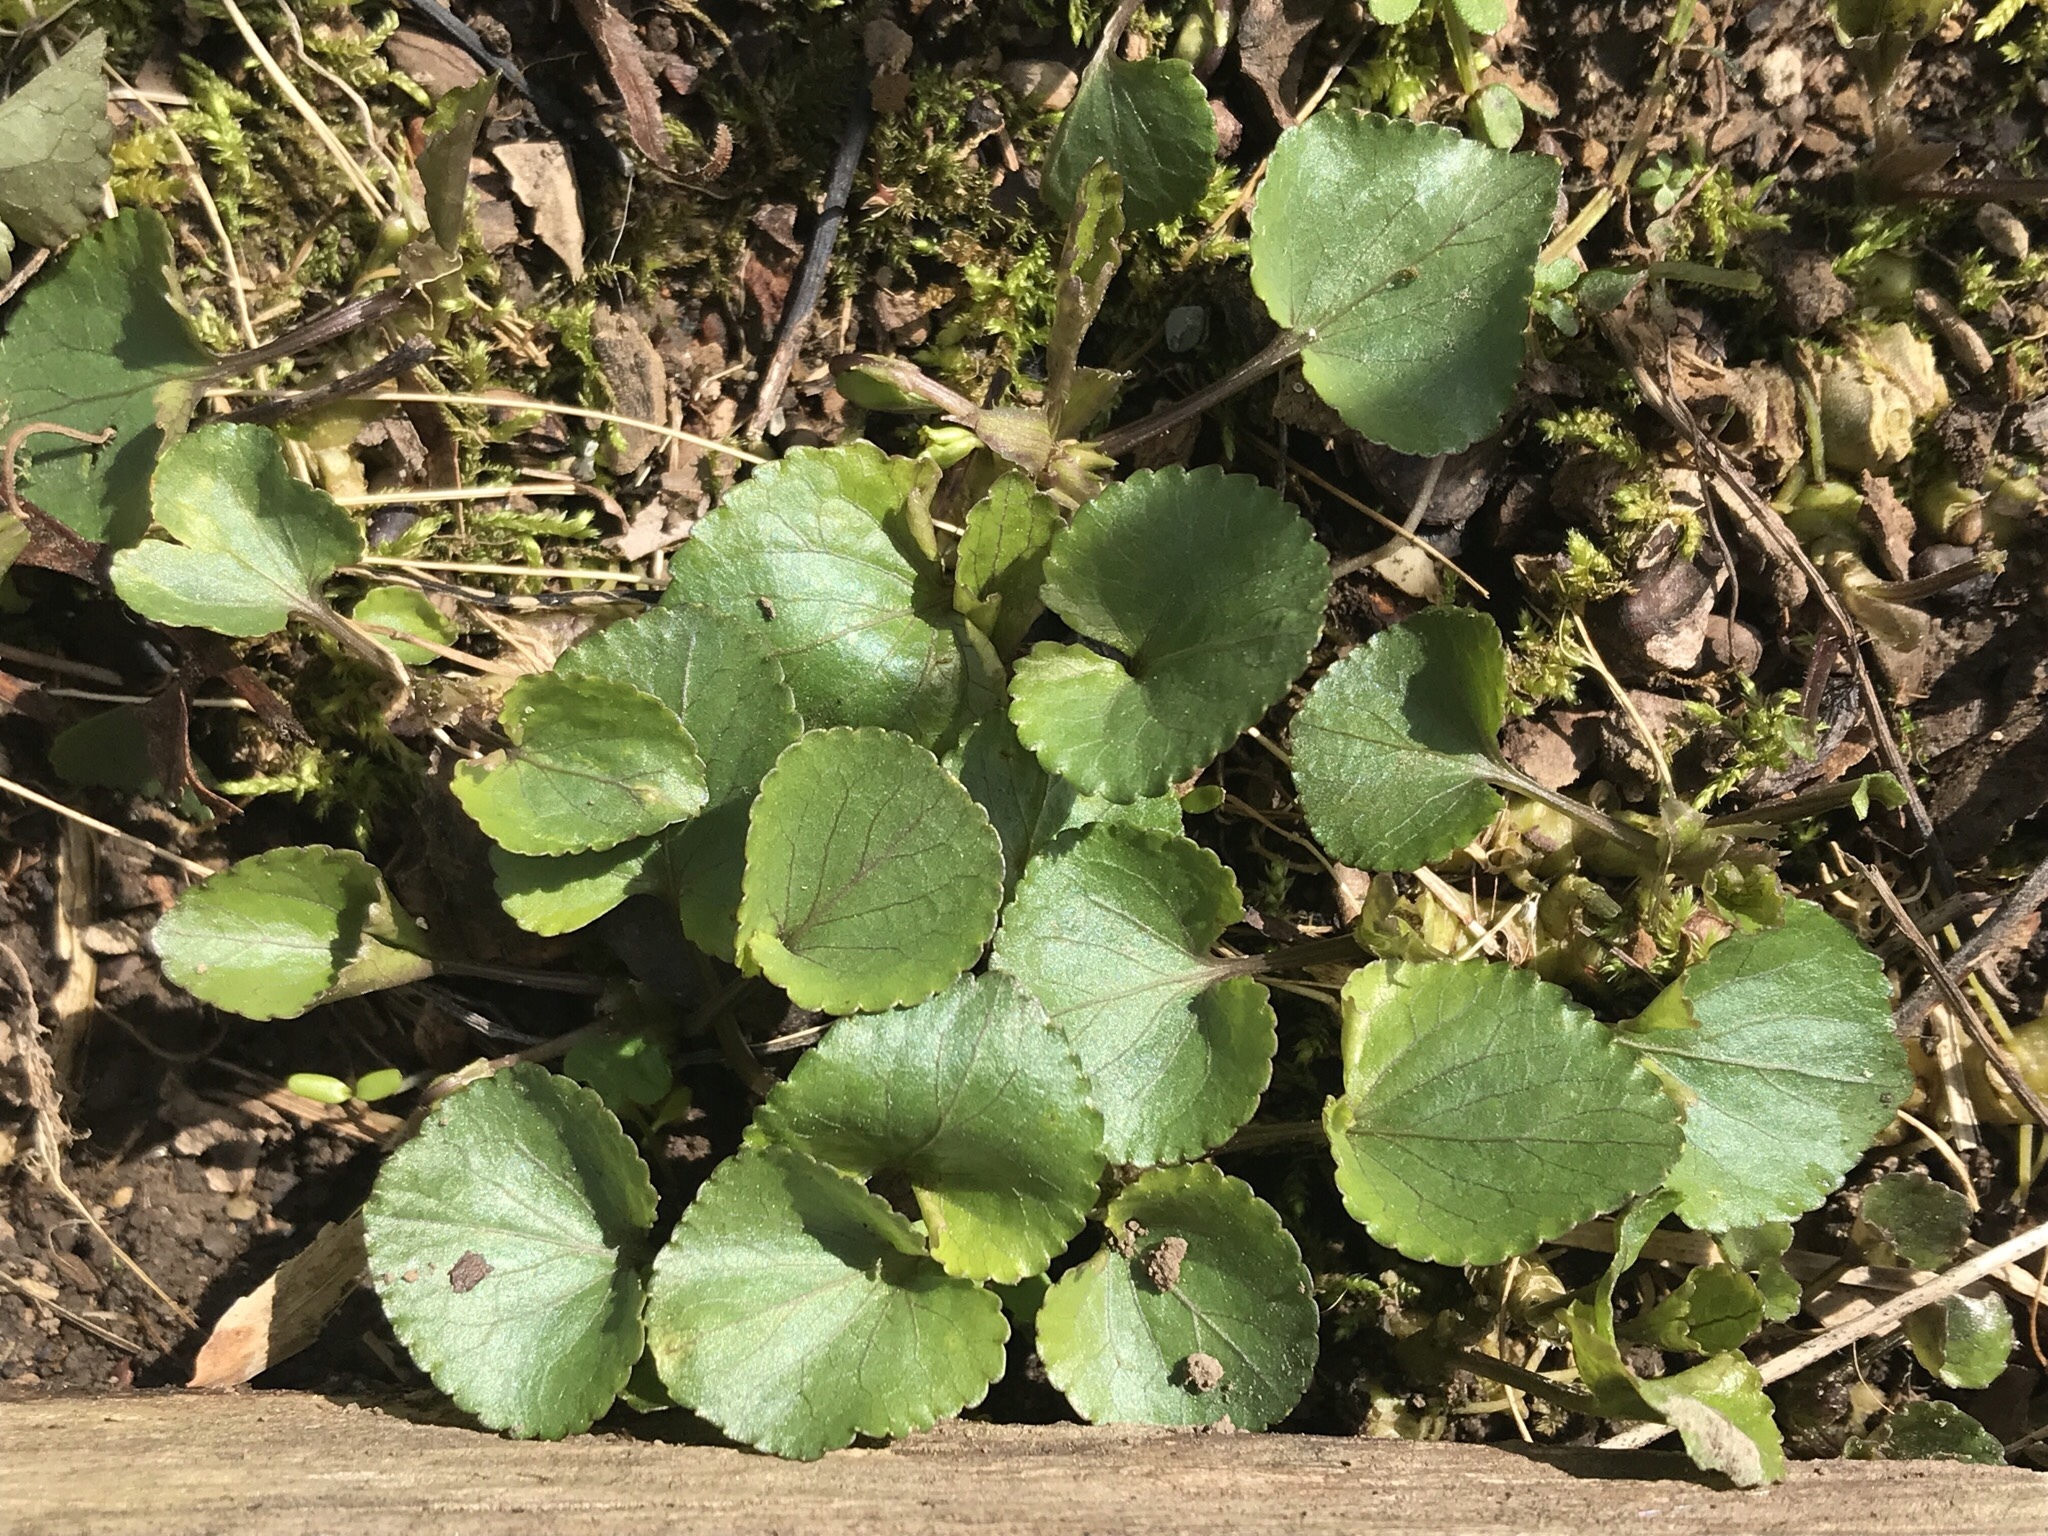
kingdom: Plantae
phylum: Tracheophyta
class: Magnoliopsida
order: Malpighiales
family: Violaceae
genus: Viola
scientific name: Viola sororia
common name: Dooryard violet
